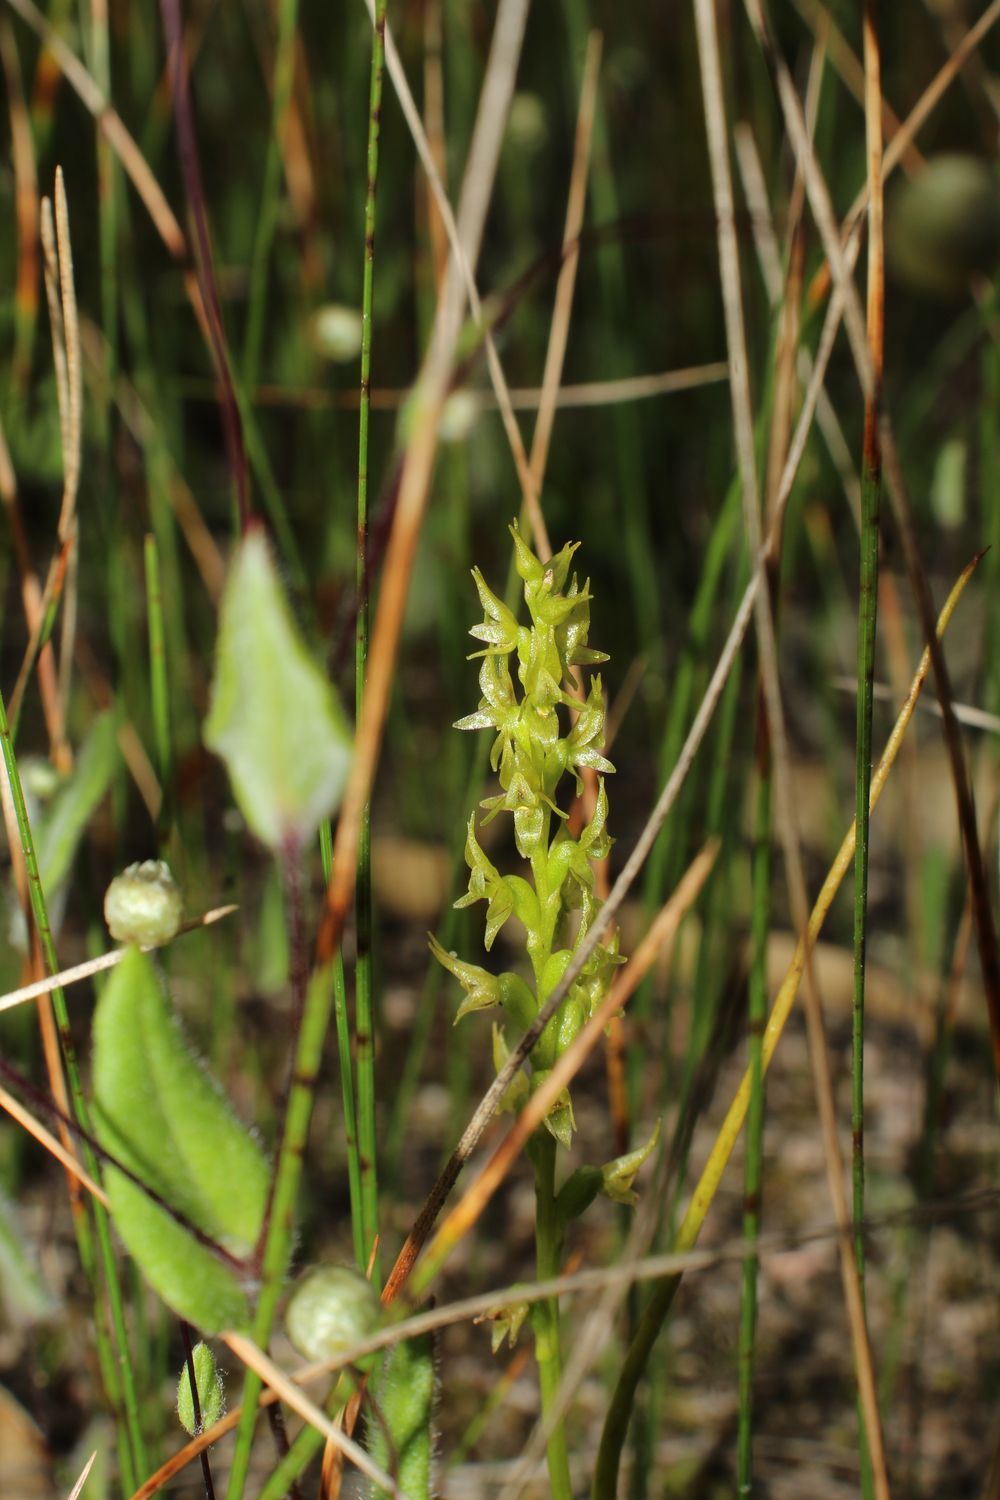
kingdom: Plantae
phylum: Tracheophyta
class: Liliopsida
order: Asparagales
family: Orchidaceae
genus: Prasophyllum
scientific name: Prasophyllum gracile
